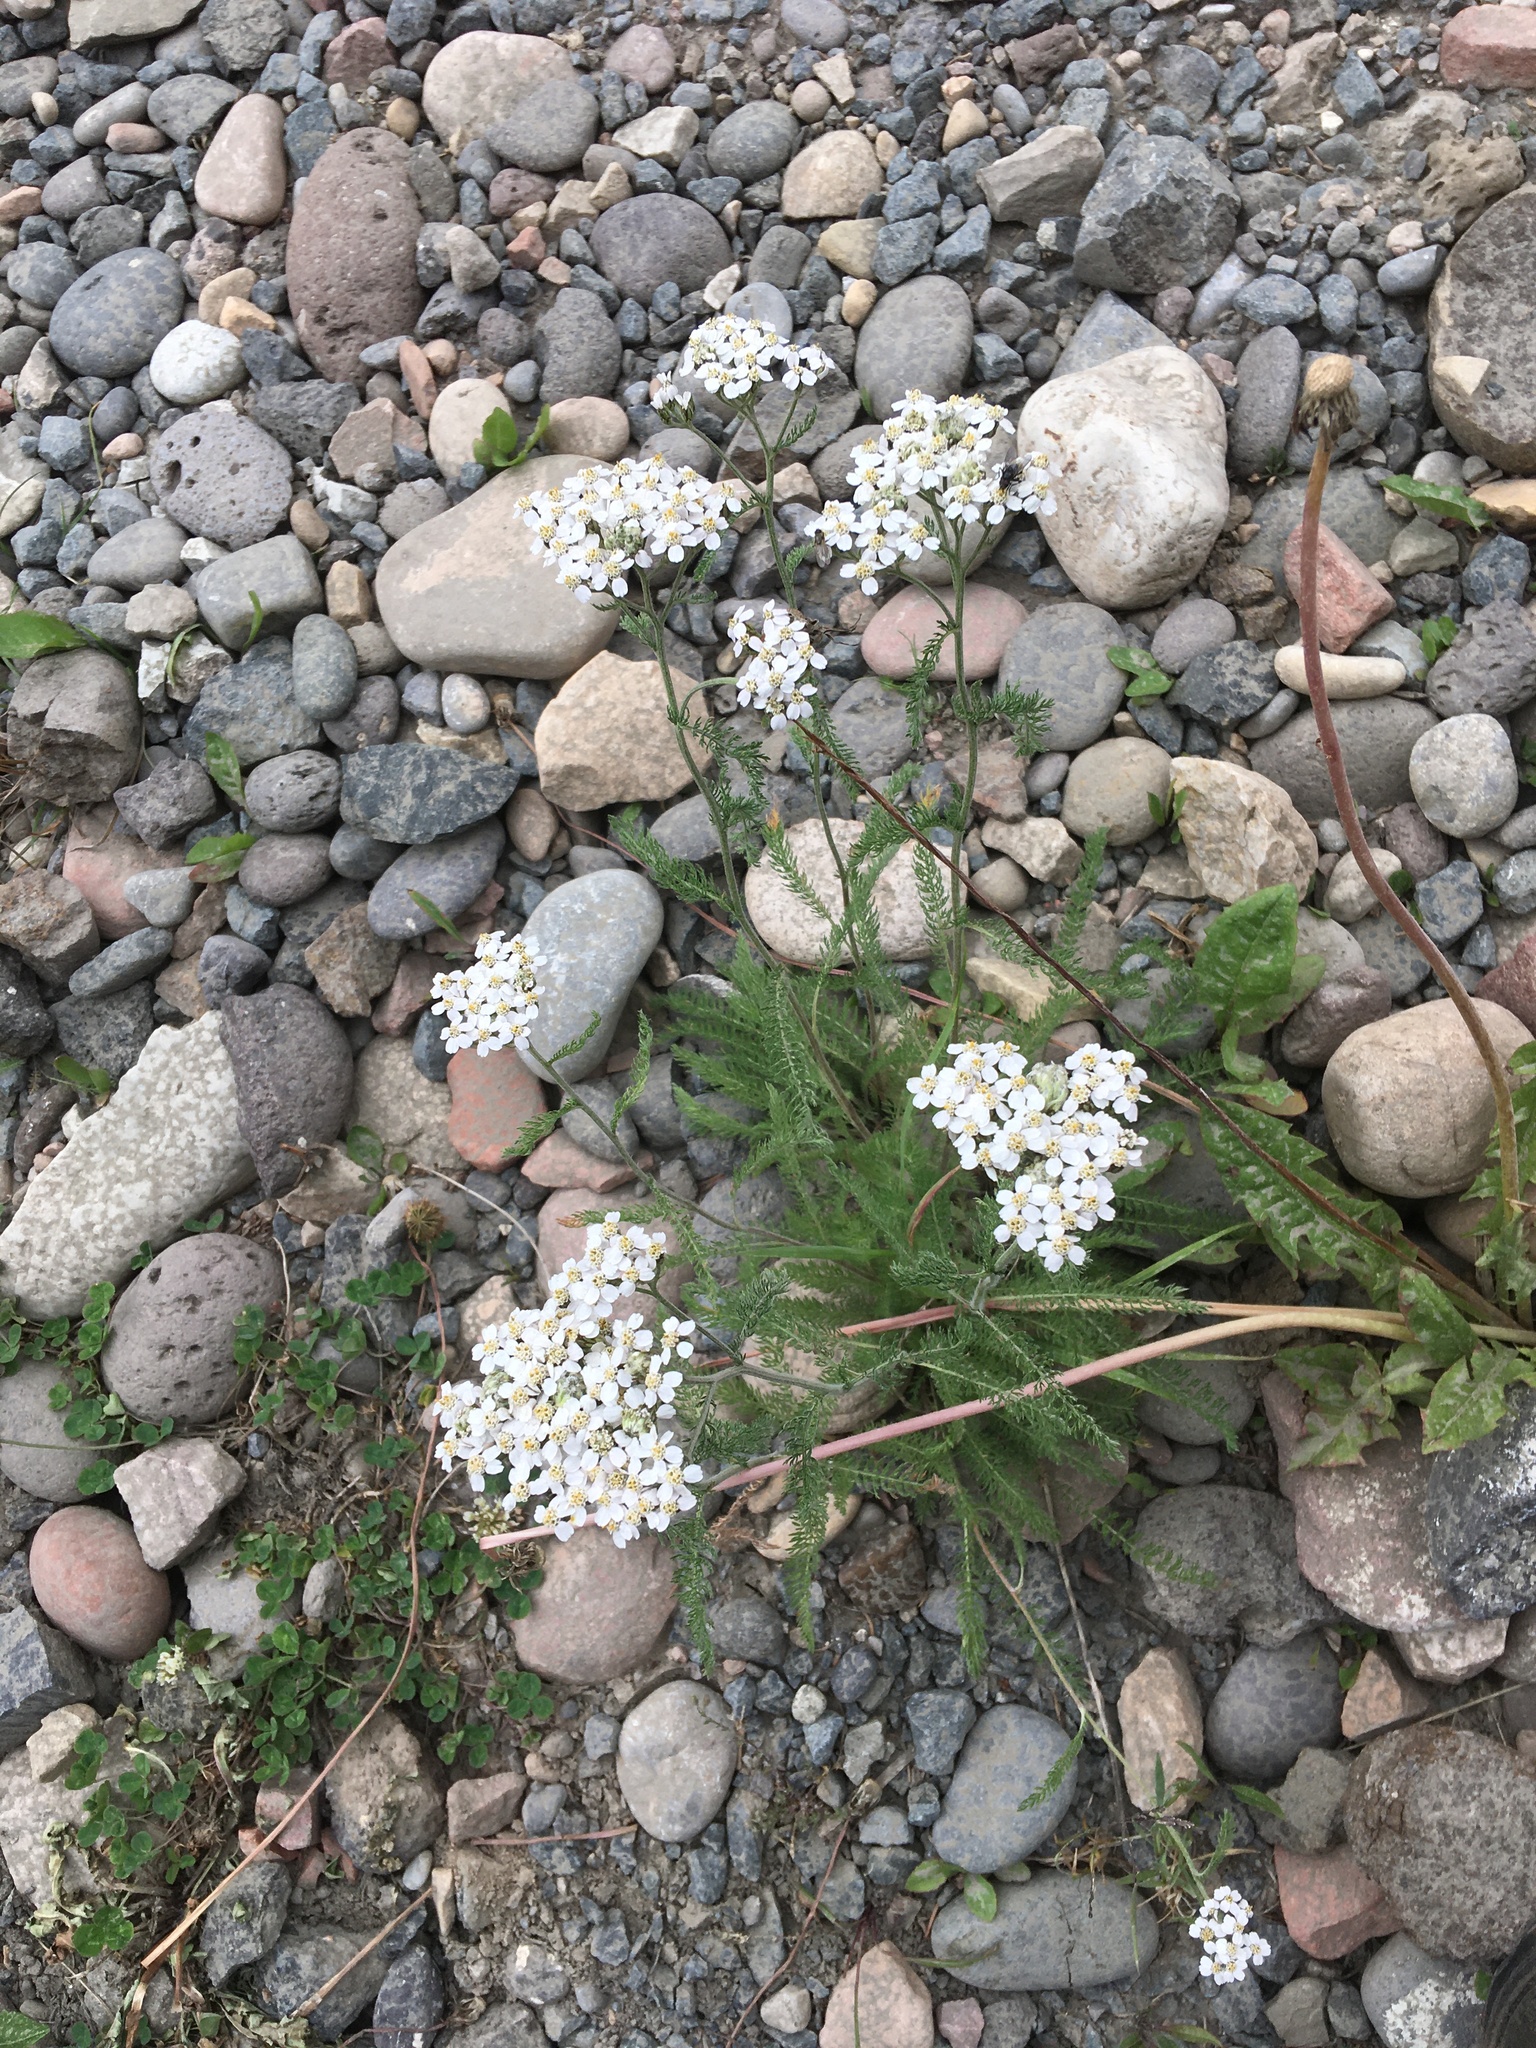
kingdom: Plantae
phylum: Tracheophyta
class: Magnoliopsida
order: Asterales
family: Asteraceae
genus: Achillea
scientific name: Achillea millefolium
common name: Yarrow
